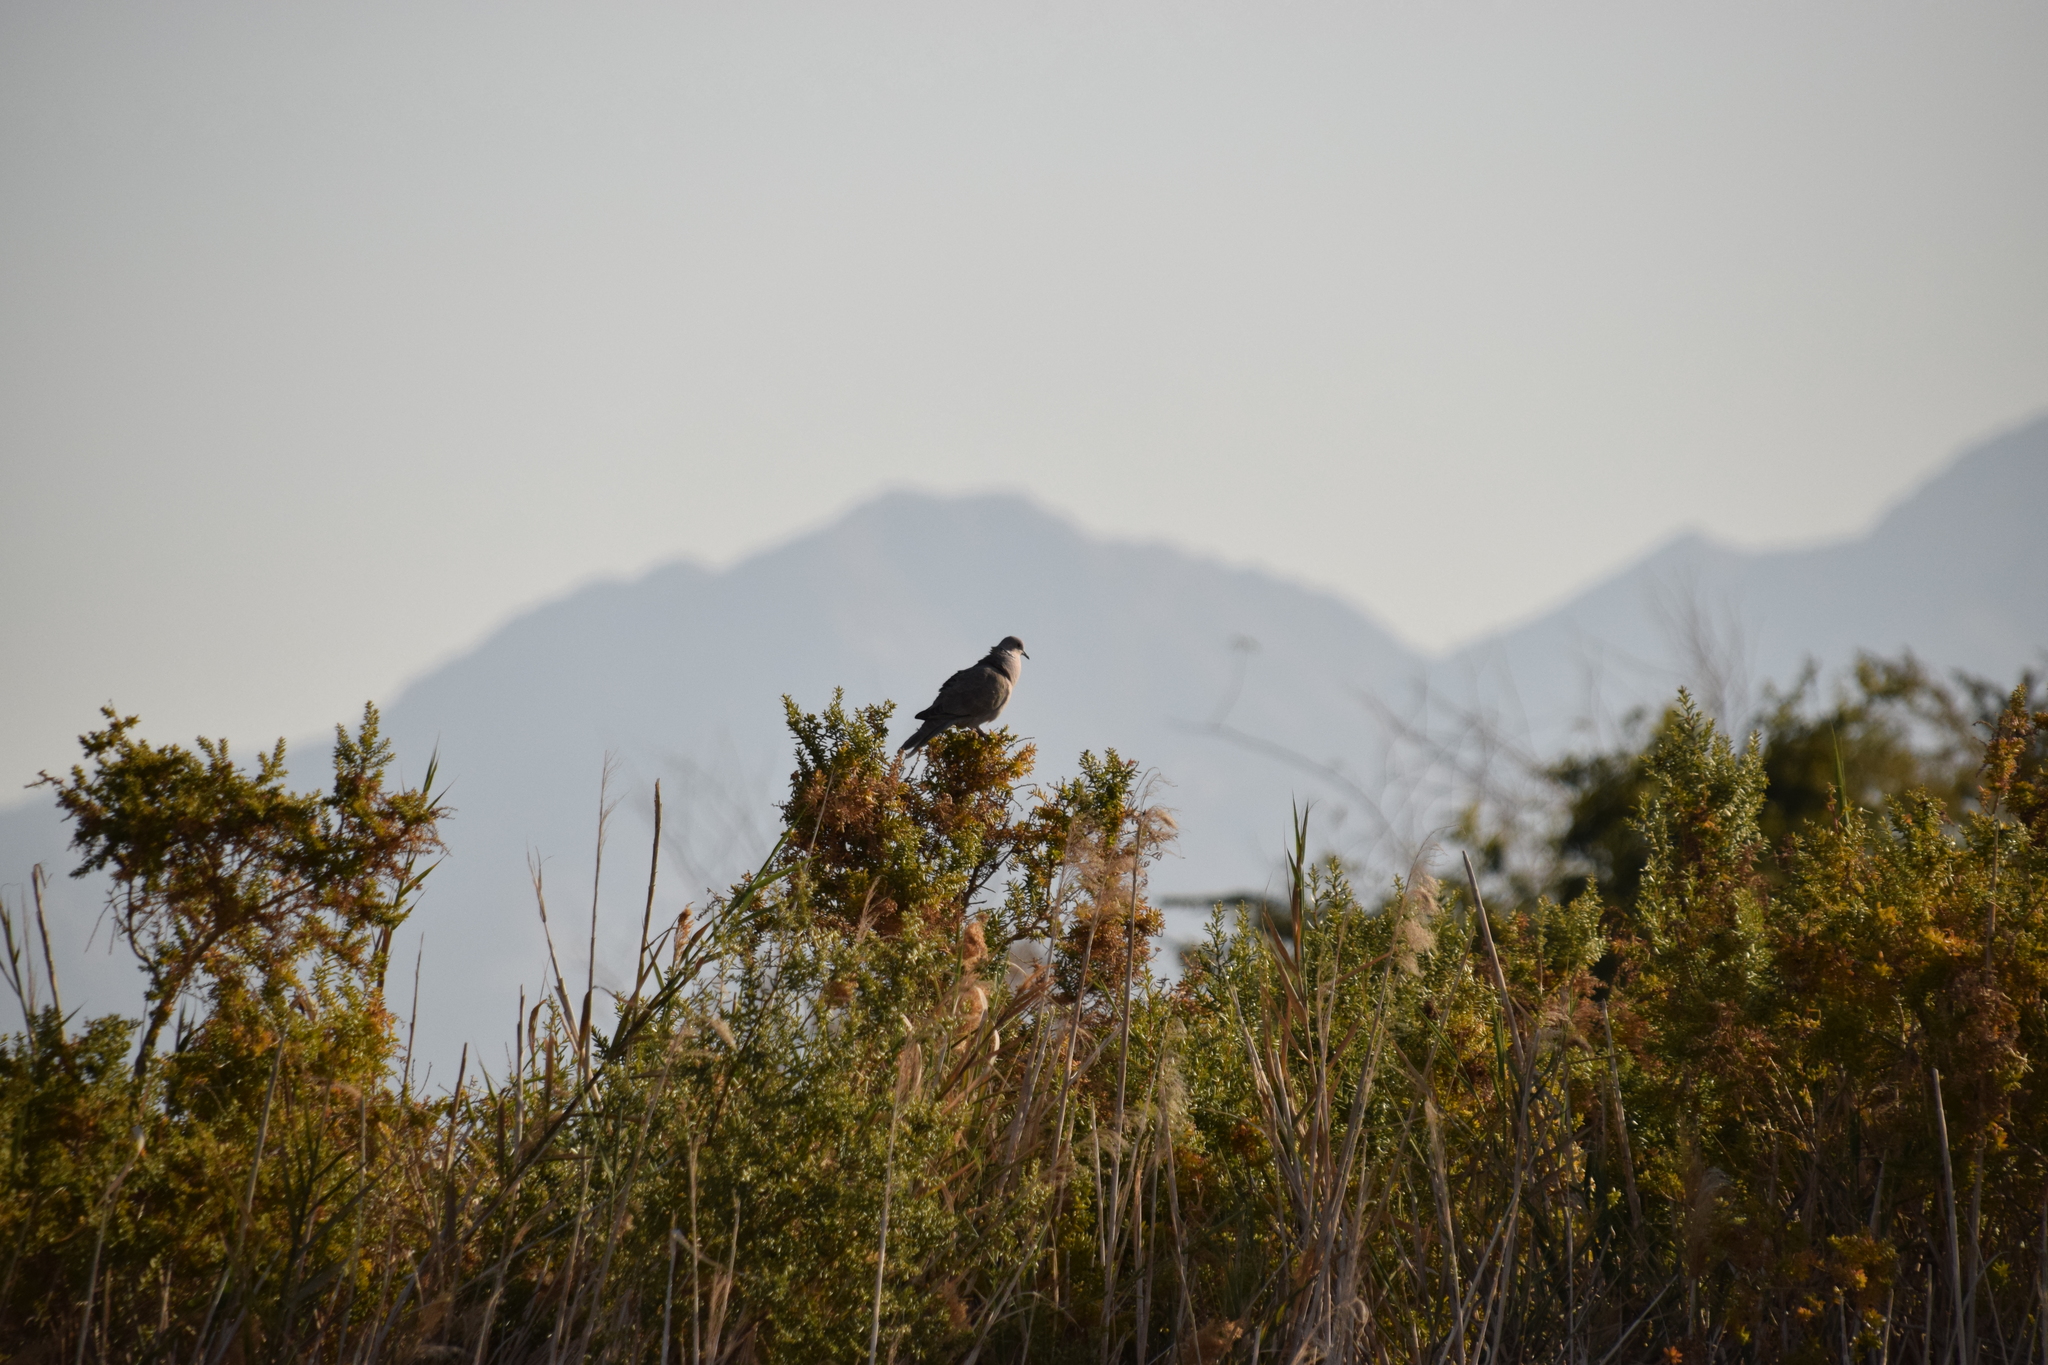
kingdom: Animalia
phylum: Chordata
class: Aves
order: Columbiformes
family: Columbidae
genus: Streptopelia
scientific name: Streptopelia decaocto
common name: Eurasian collared dove
